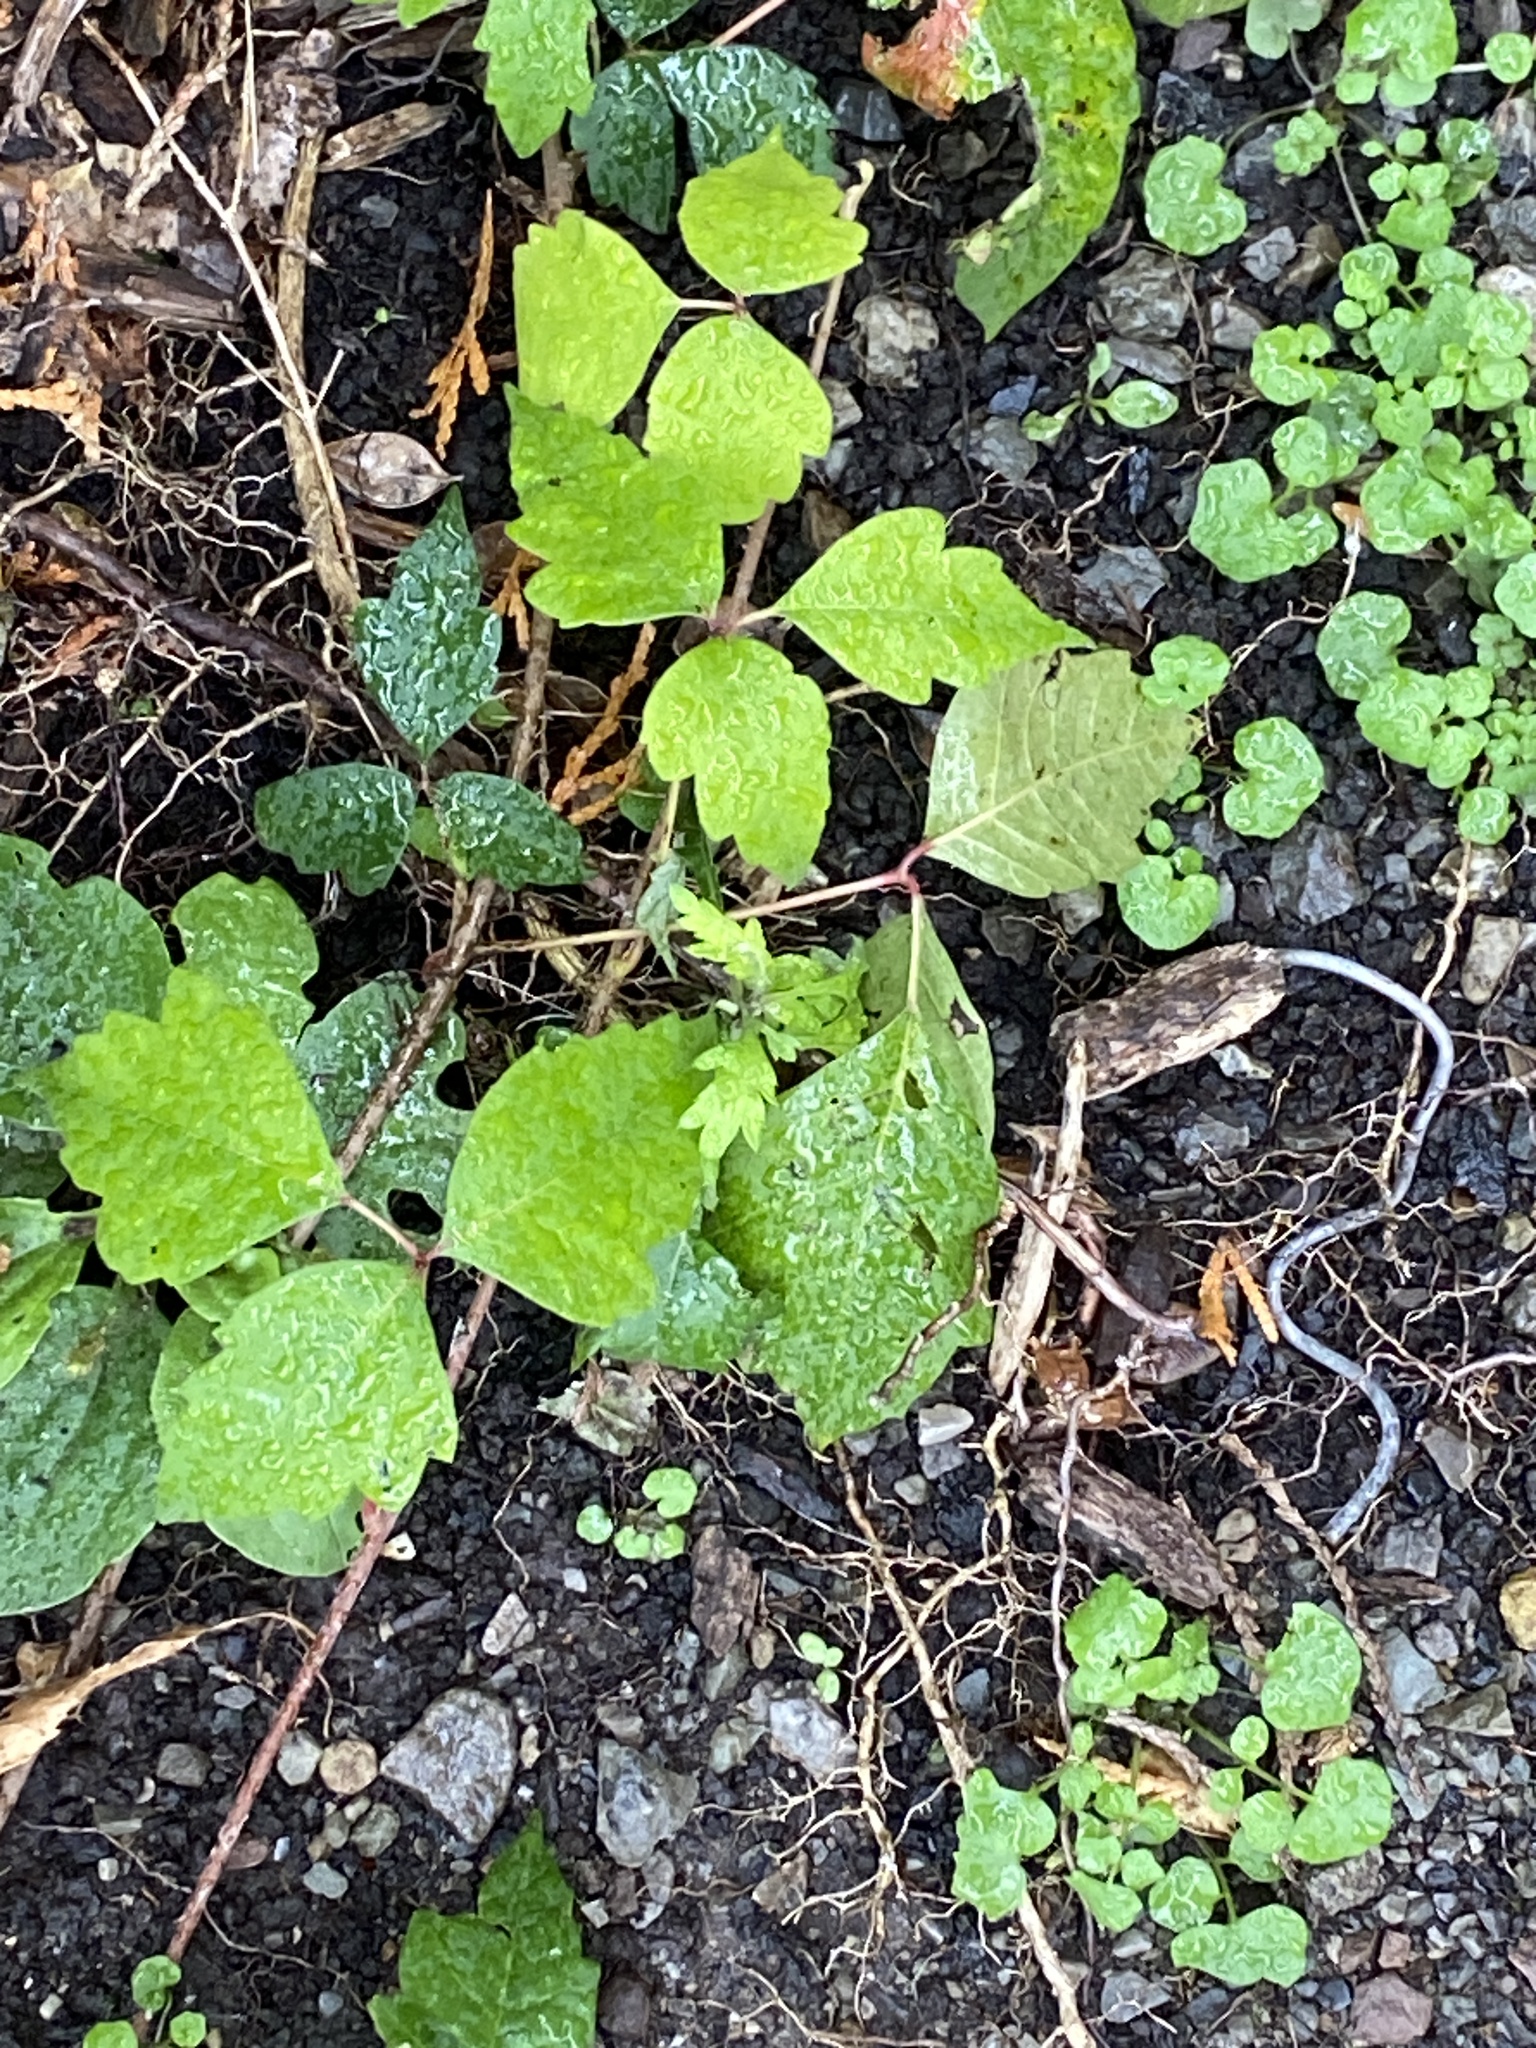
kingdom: Plantae
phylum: Tracheophyta
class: Magnoliopsida
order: Sapindales
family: Anacardiaceae
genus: Toxicodendron
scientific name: Toxicodendron radicans
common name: Poison ivy
